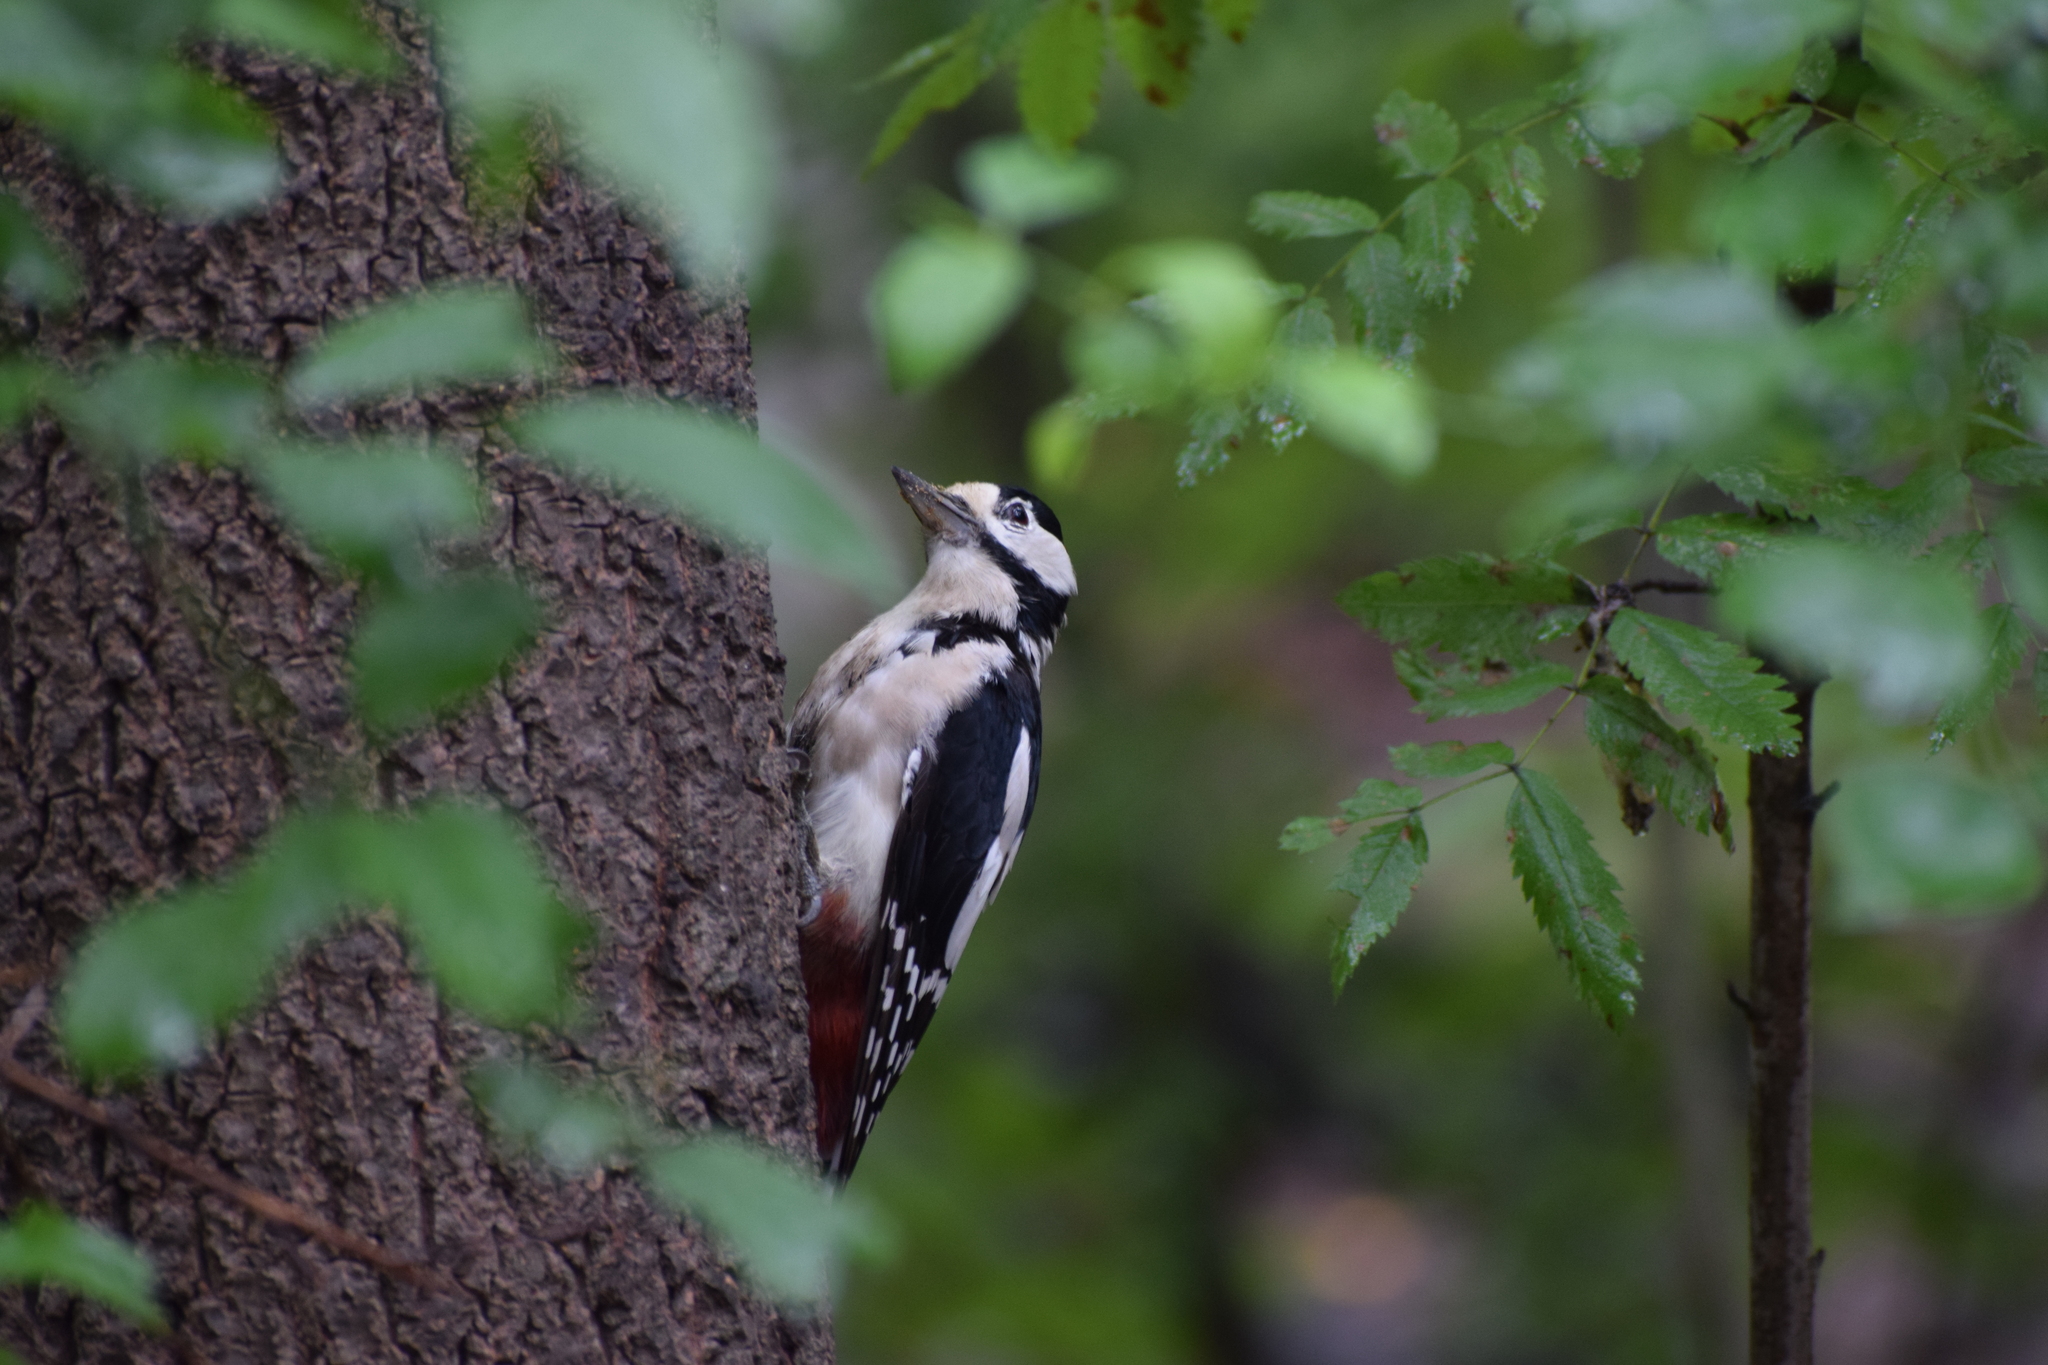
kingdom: Animalia
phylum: Chordata
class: Aves
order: Piciformes
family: Picidae
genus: Dendrocopos
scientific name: Dendrocopos major
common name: Great spotted woodpecker
